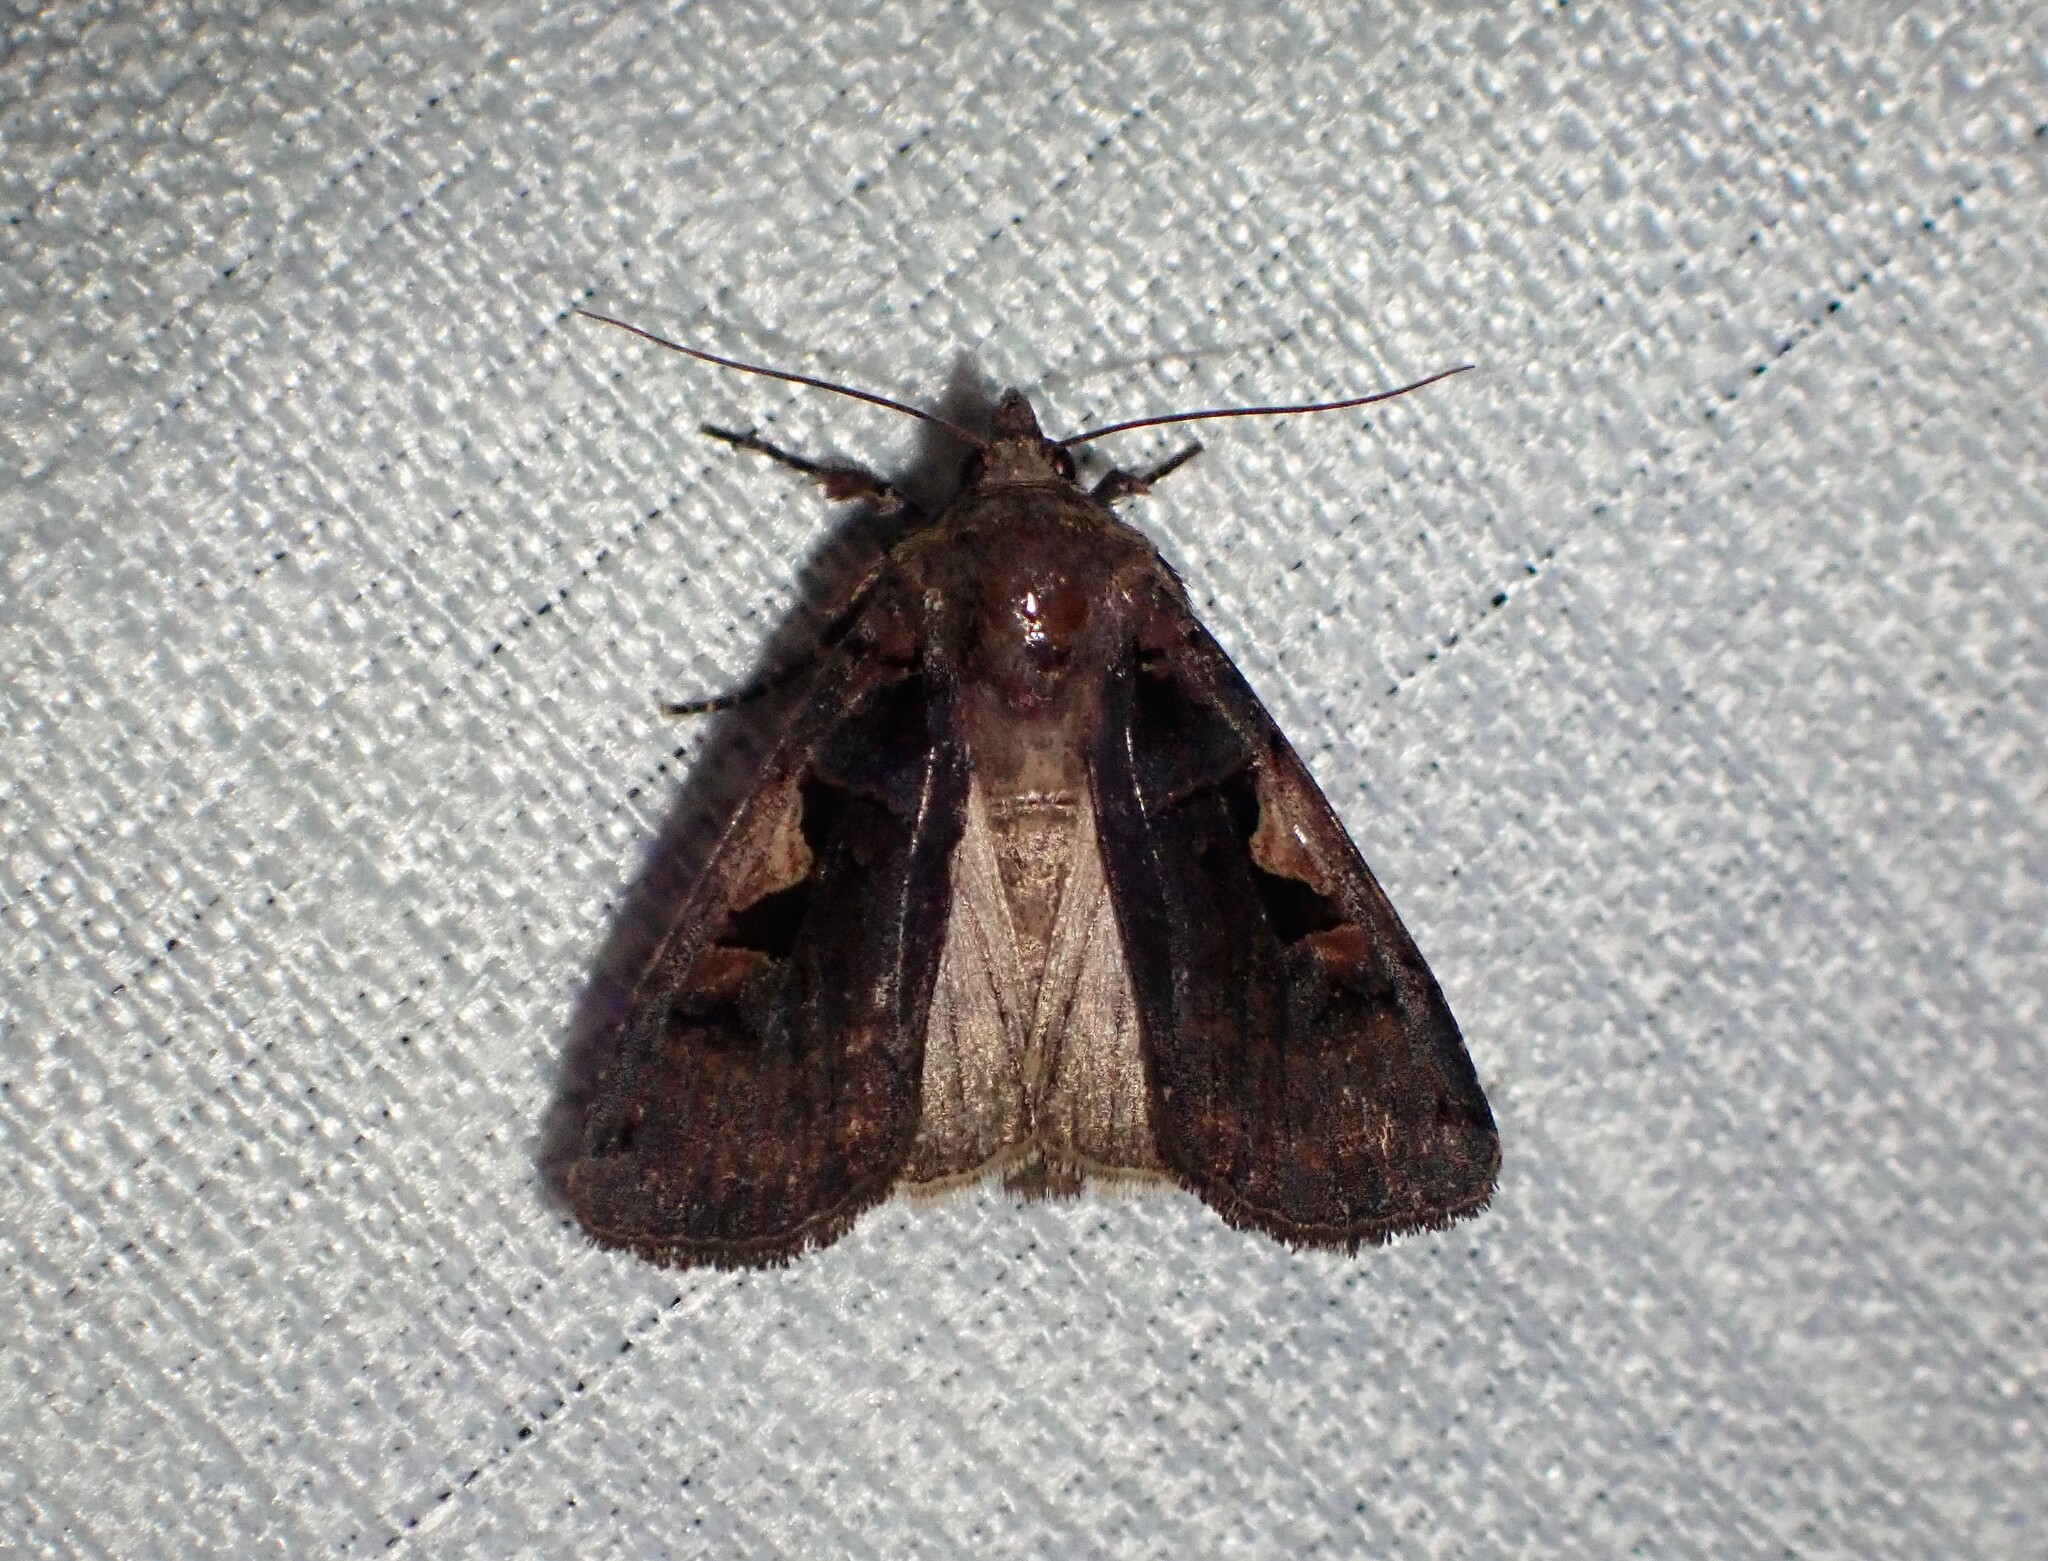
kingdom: Animalia
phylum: Arthropoda
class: Insecta
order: Lepidoptera
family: Noctuidae
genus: Xestia
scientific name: Xestia c-nigrum
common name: Setaceous hebrew character
